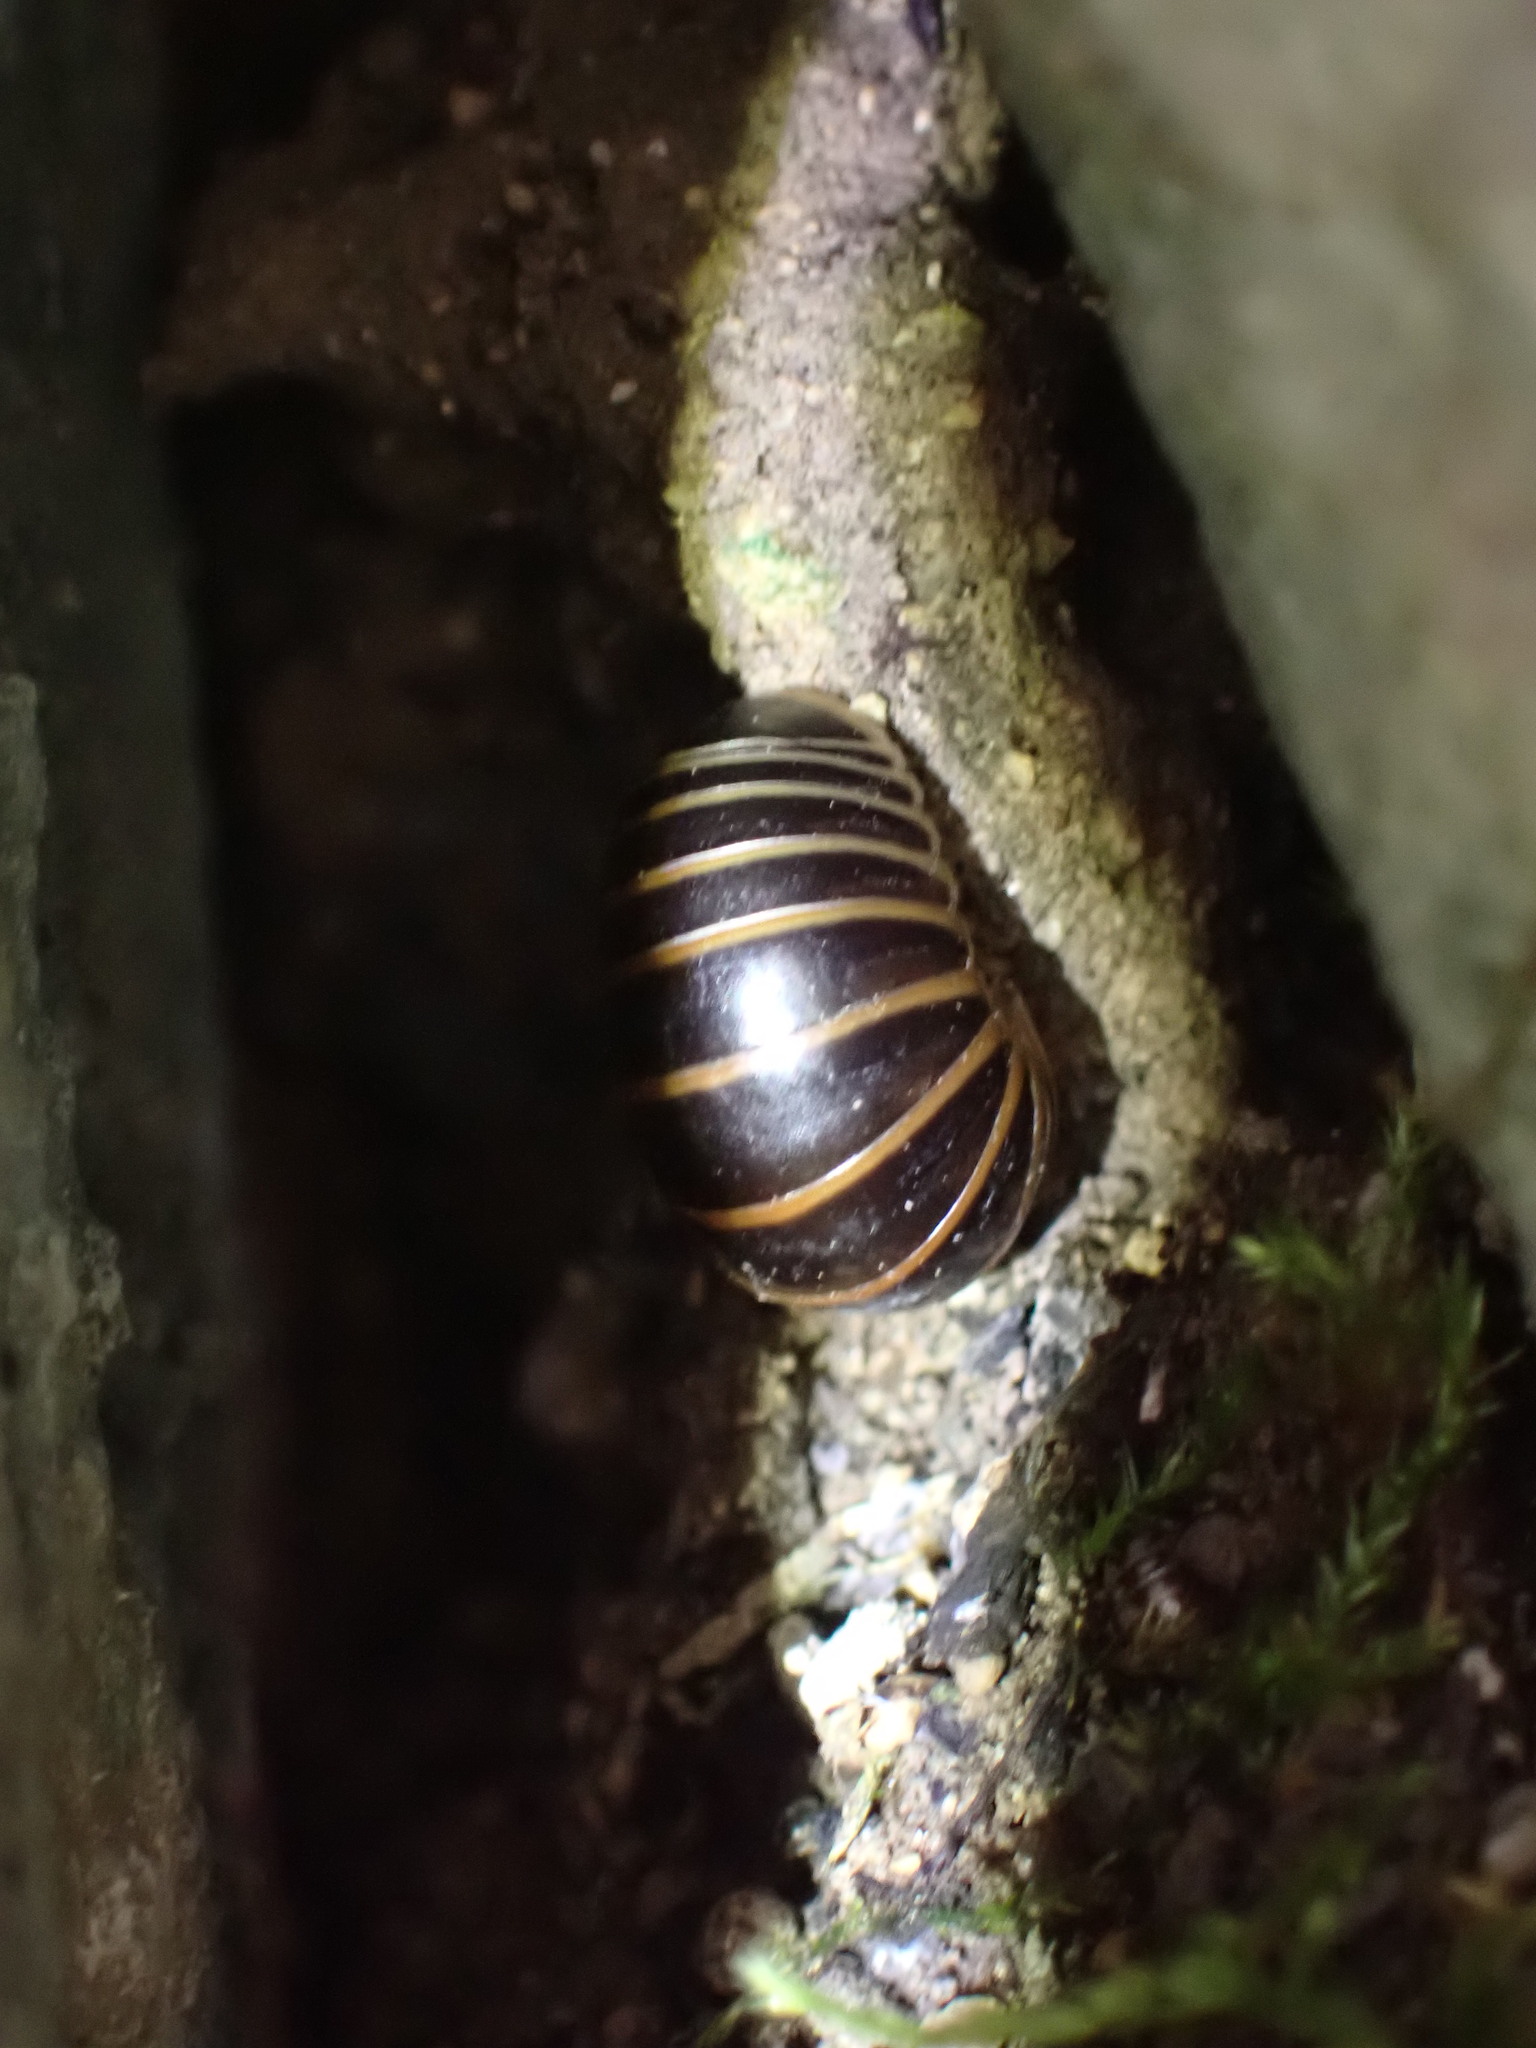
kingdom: Animalia
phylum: Arthropoda
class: Diplopoda
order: Glomerida
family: Glomeridae
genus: Glomeris
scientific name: Glomeris marginata
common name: Bordered pill millipede
